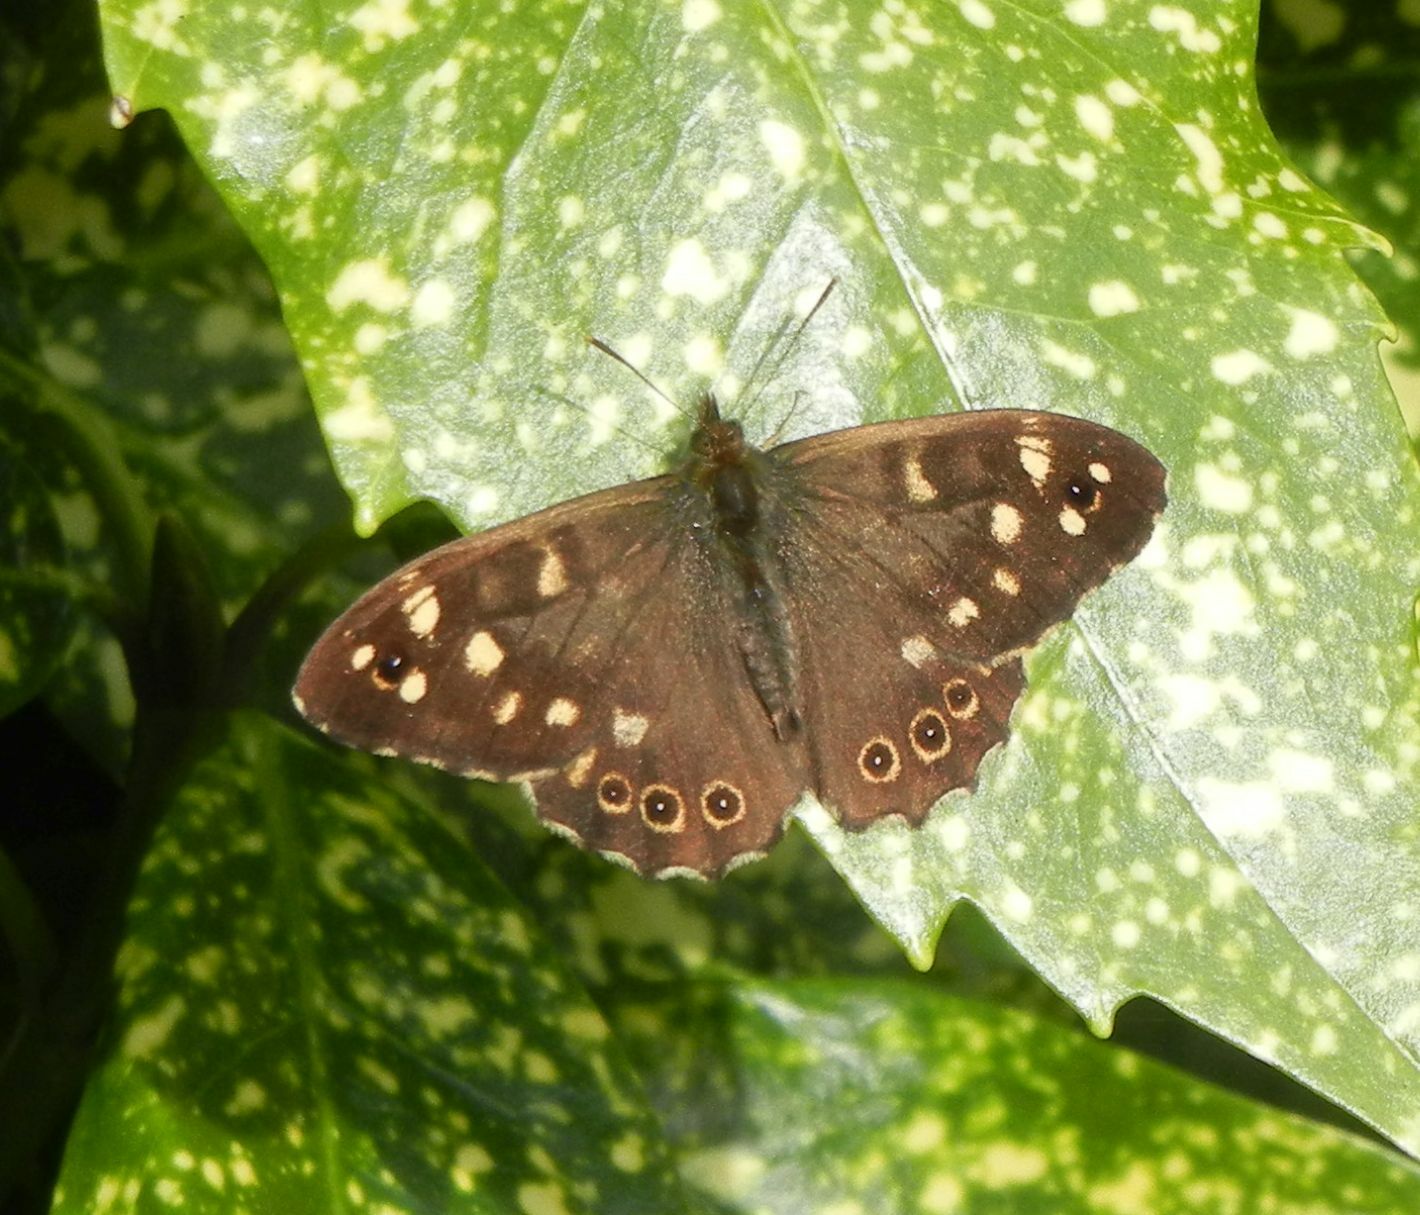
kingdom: Animalia
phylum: Arthropoda
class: Insecta
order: Lepidoptera
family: Nymphalidae
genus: Pararge
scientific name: Pararge aegeria
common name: Speckled wood
